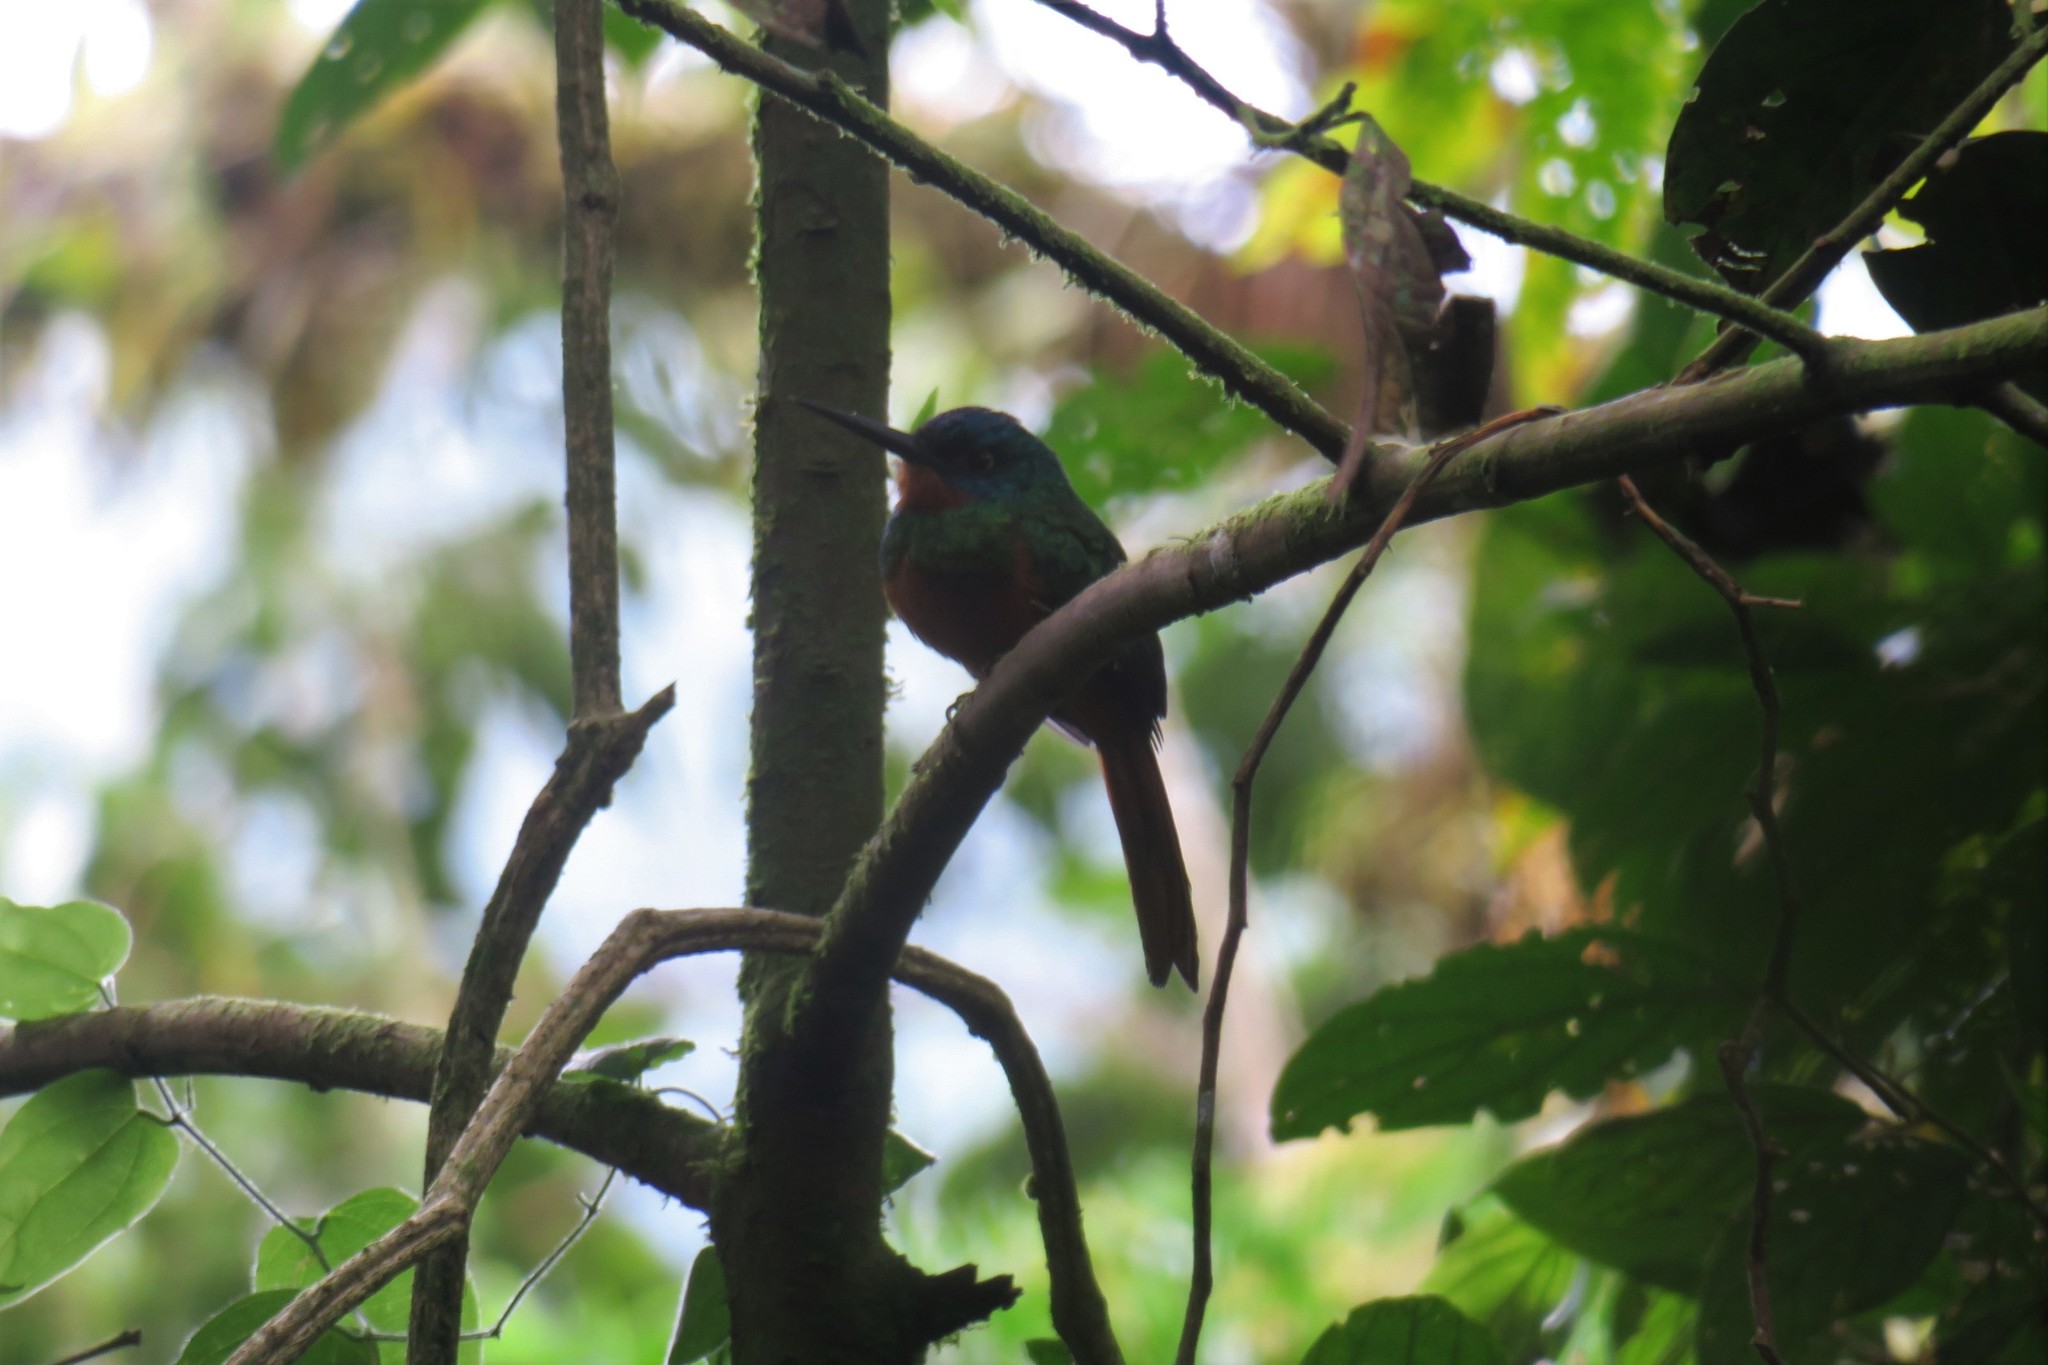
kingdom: Animalia
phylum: Chordata
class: Aves
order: Piciformes
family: Galbulidae
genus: Galbula
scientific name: Galbula pastazae
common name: Coppery-chested jacamar
